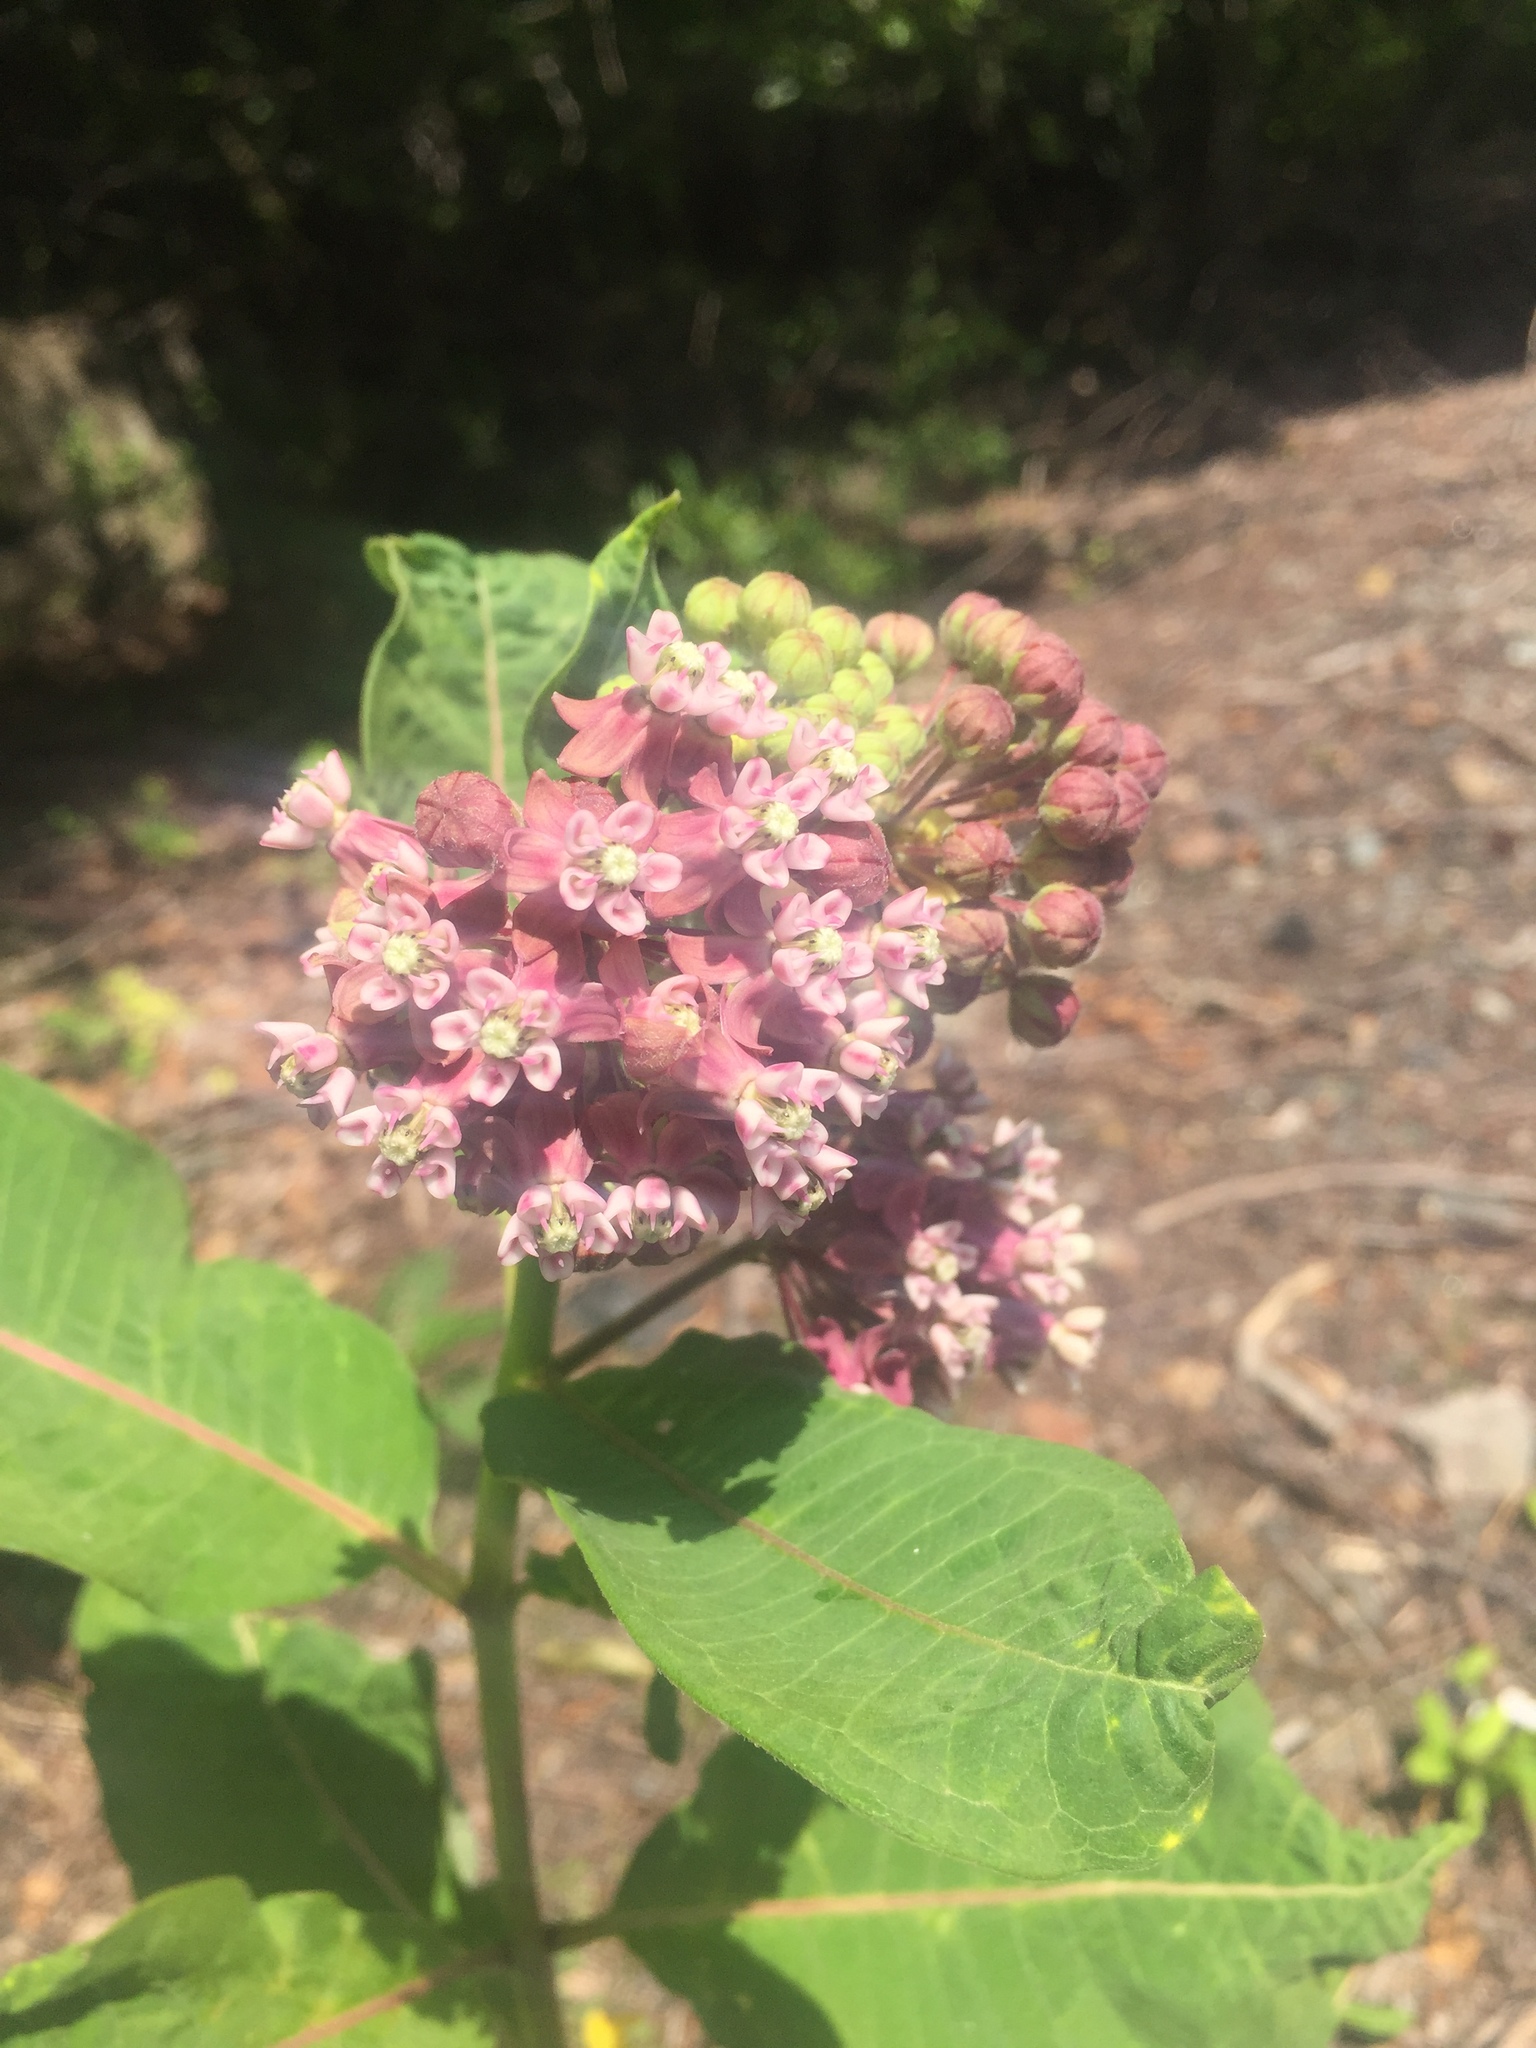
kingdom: Plantae
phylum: Tracheophyta
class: Magnoliopsida
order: Gentianales
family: Apocynaceae
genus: Asclepias
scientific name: Asclepias syriaca
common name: Common milkweed
